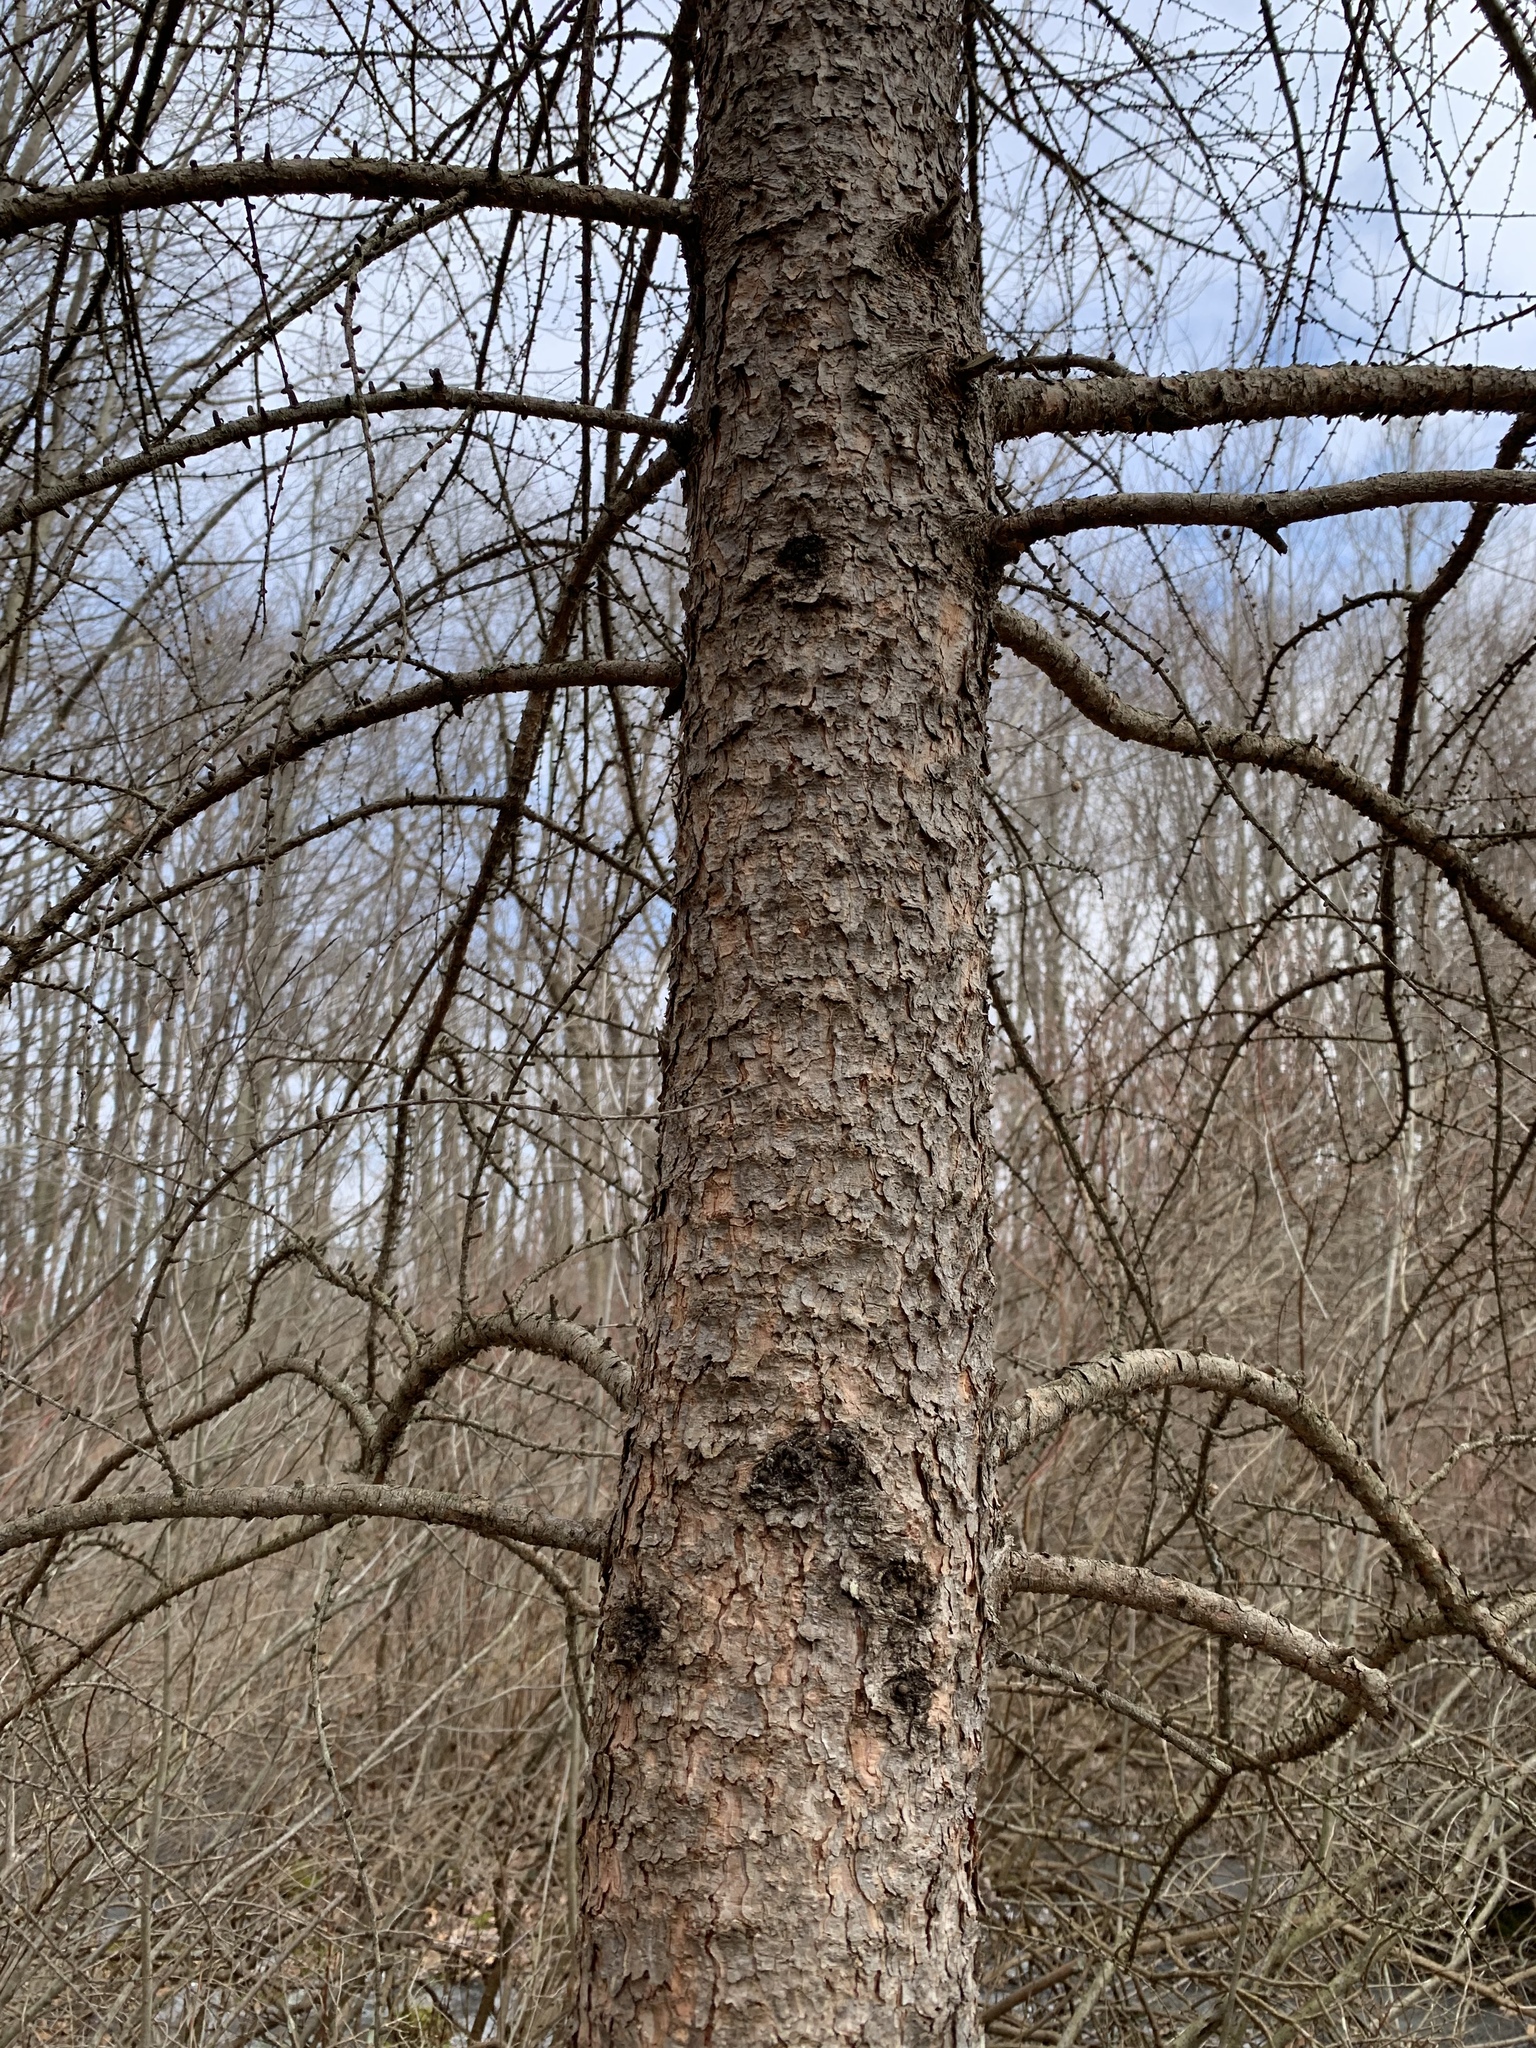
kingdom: Plantae
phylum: Tracheophyta
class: Pinopsida
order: Pinales
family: Pinaceae
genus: Larix
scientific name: Larix laricina
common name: American larch
